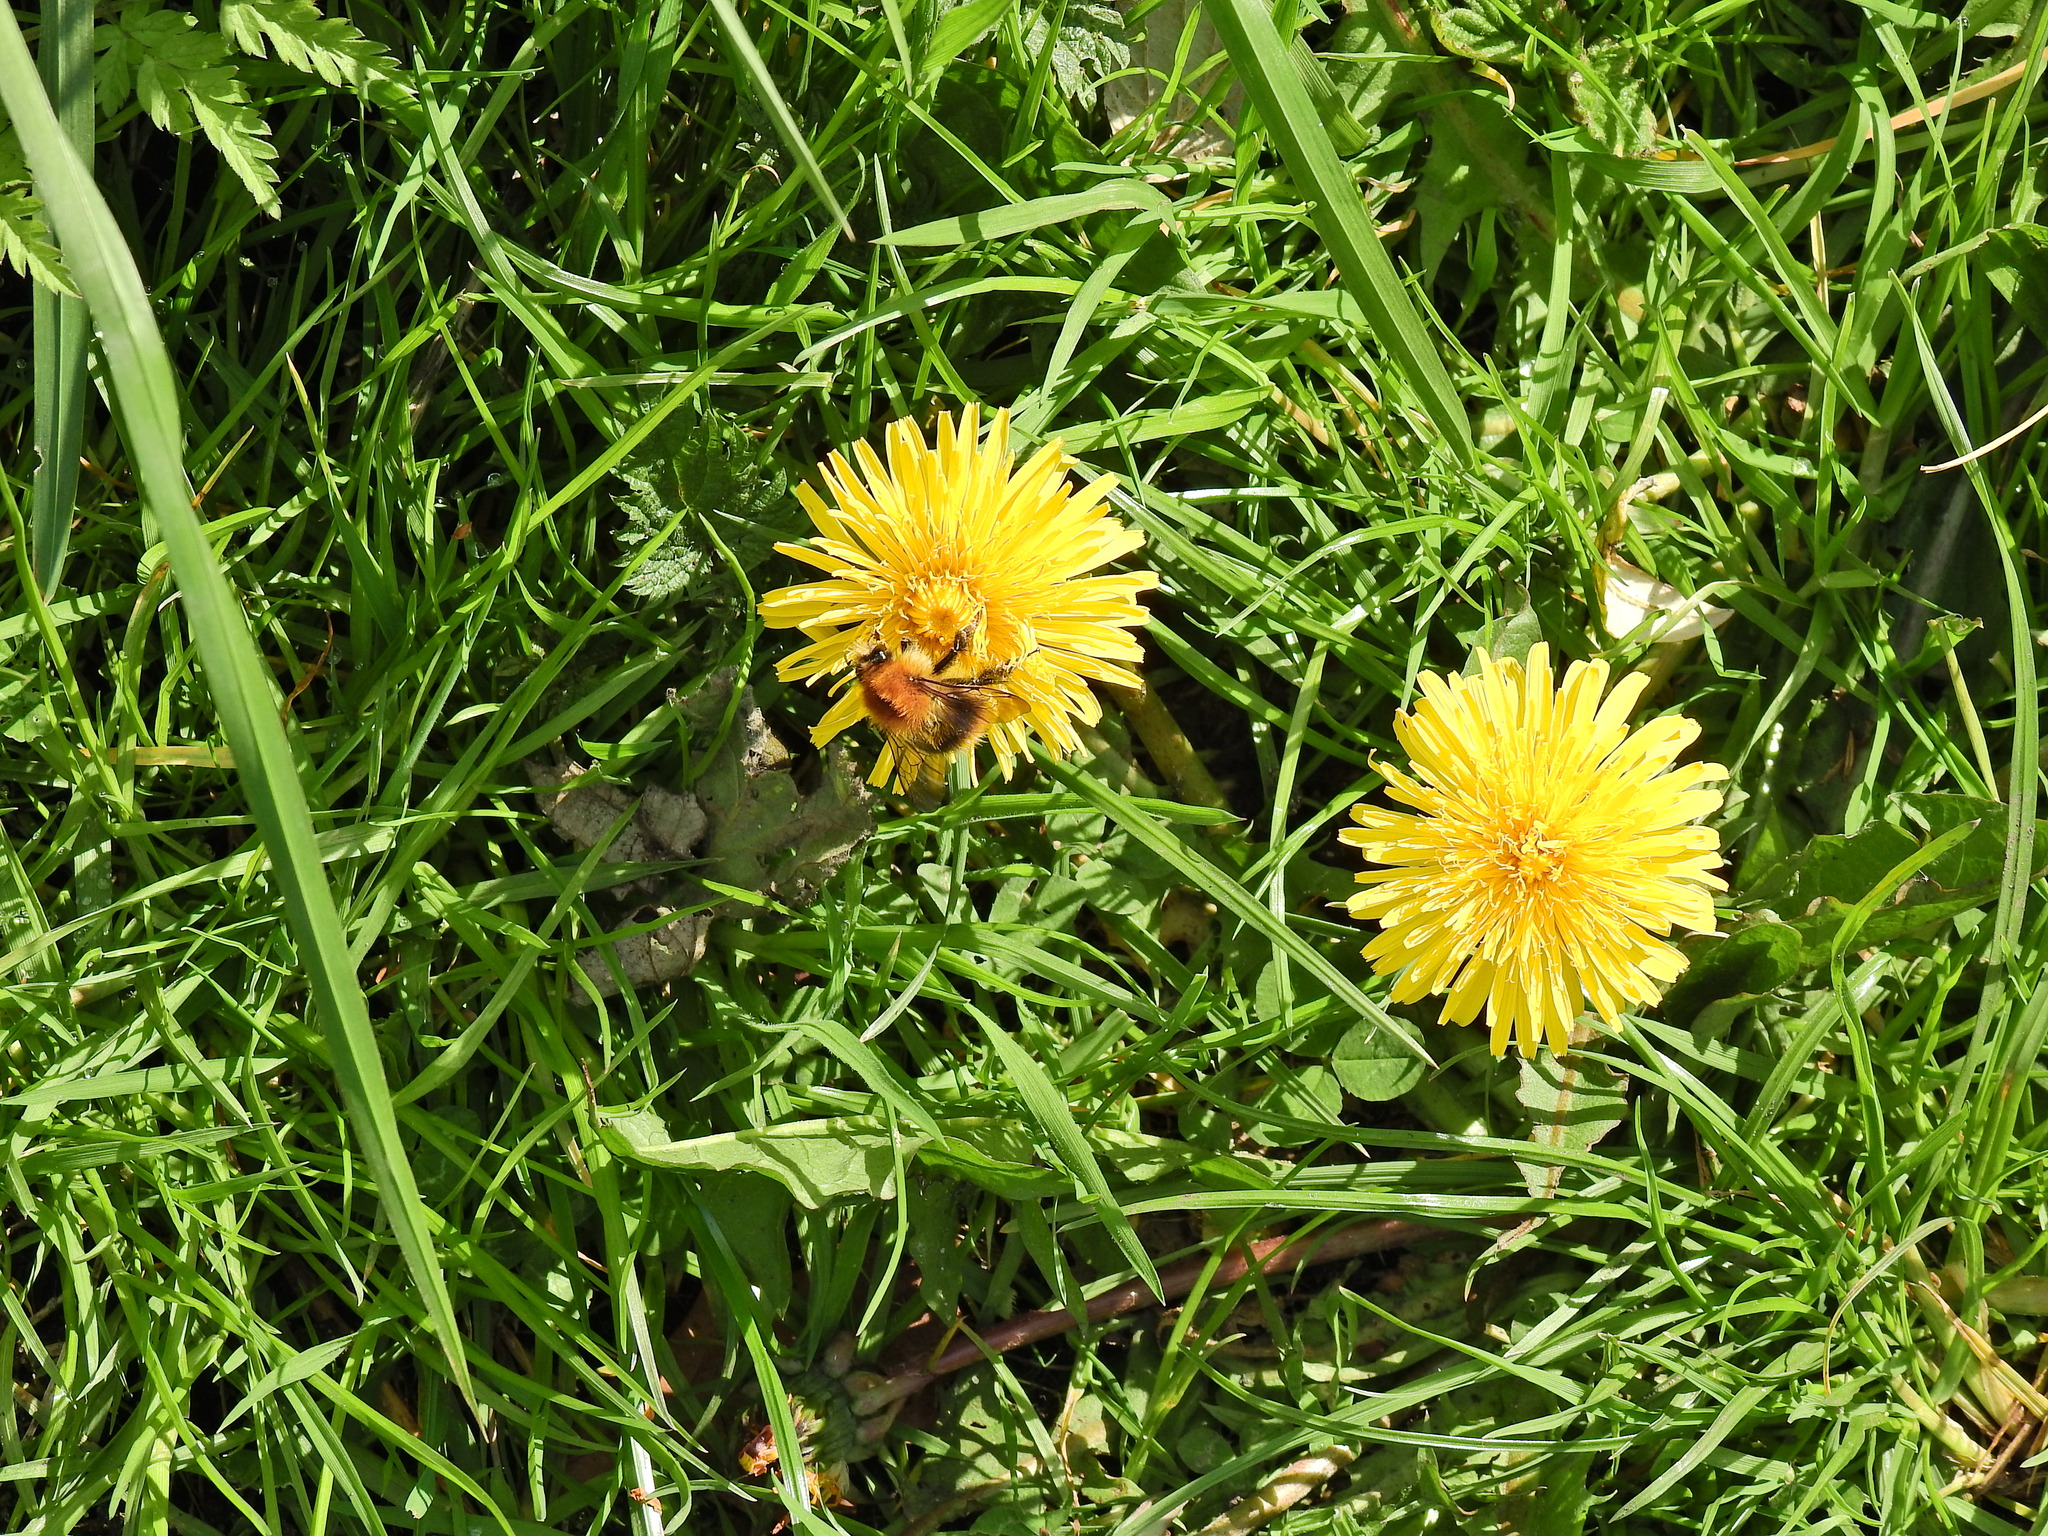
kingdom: Animalia
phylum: Arthropoda
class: Insecta
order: Hymenoptera
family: Apidae
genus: Bombus
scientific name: Bombus pascuorum
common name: Common carder bee
